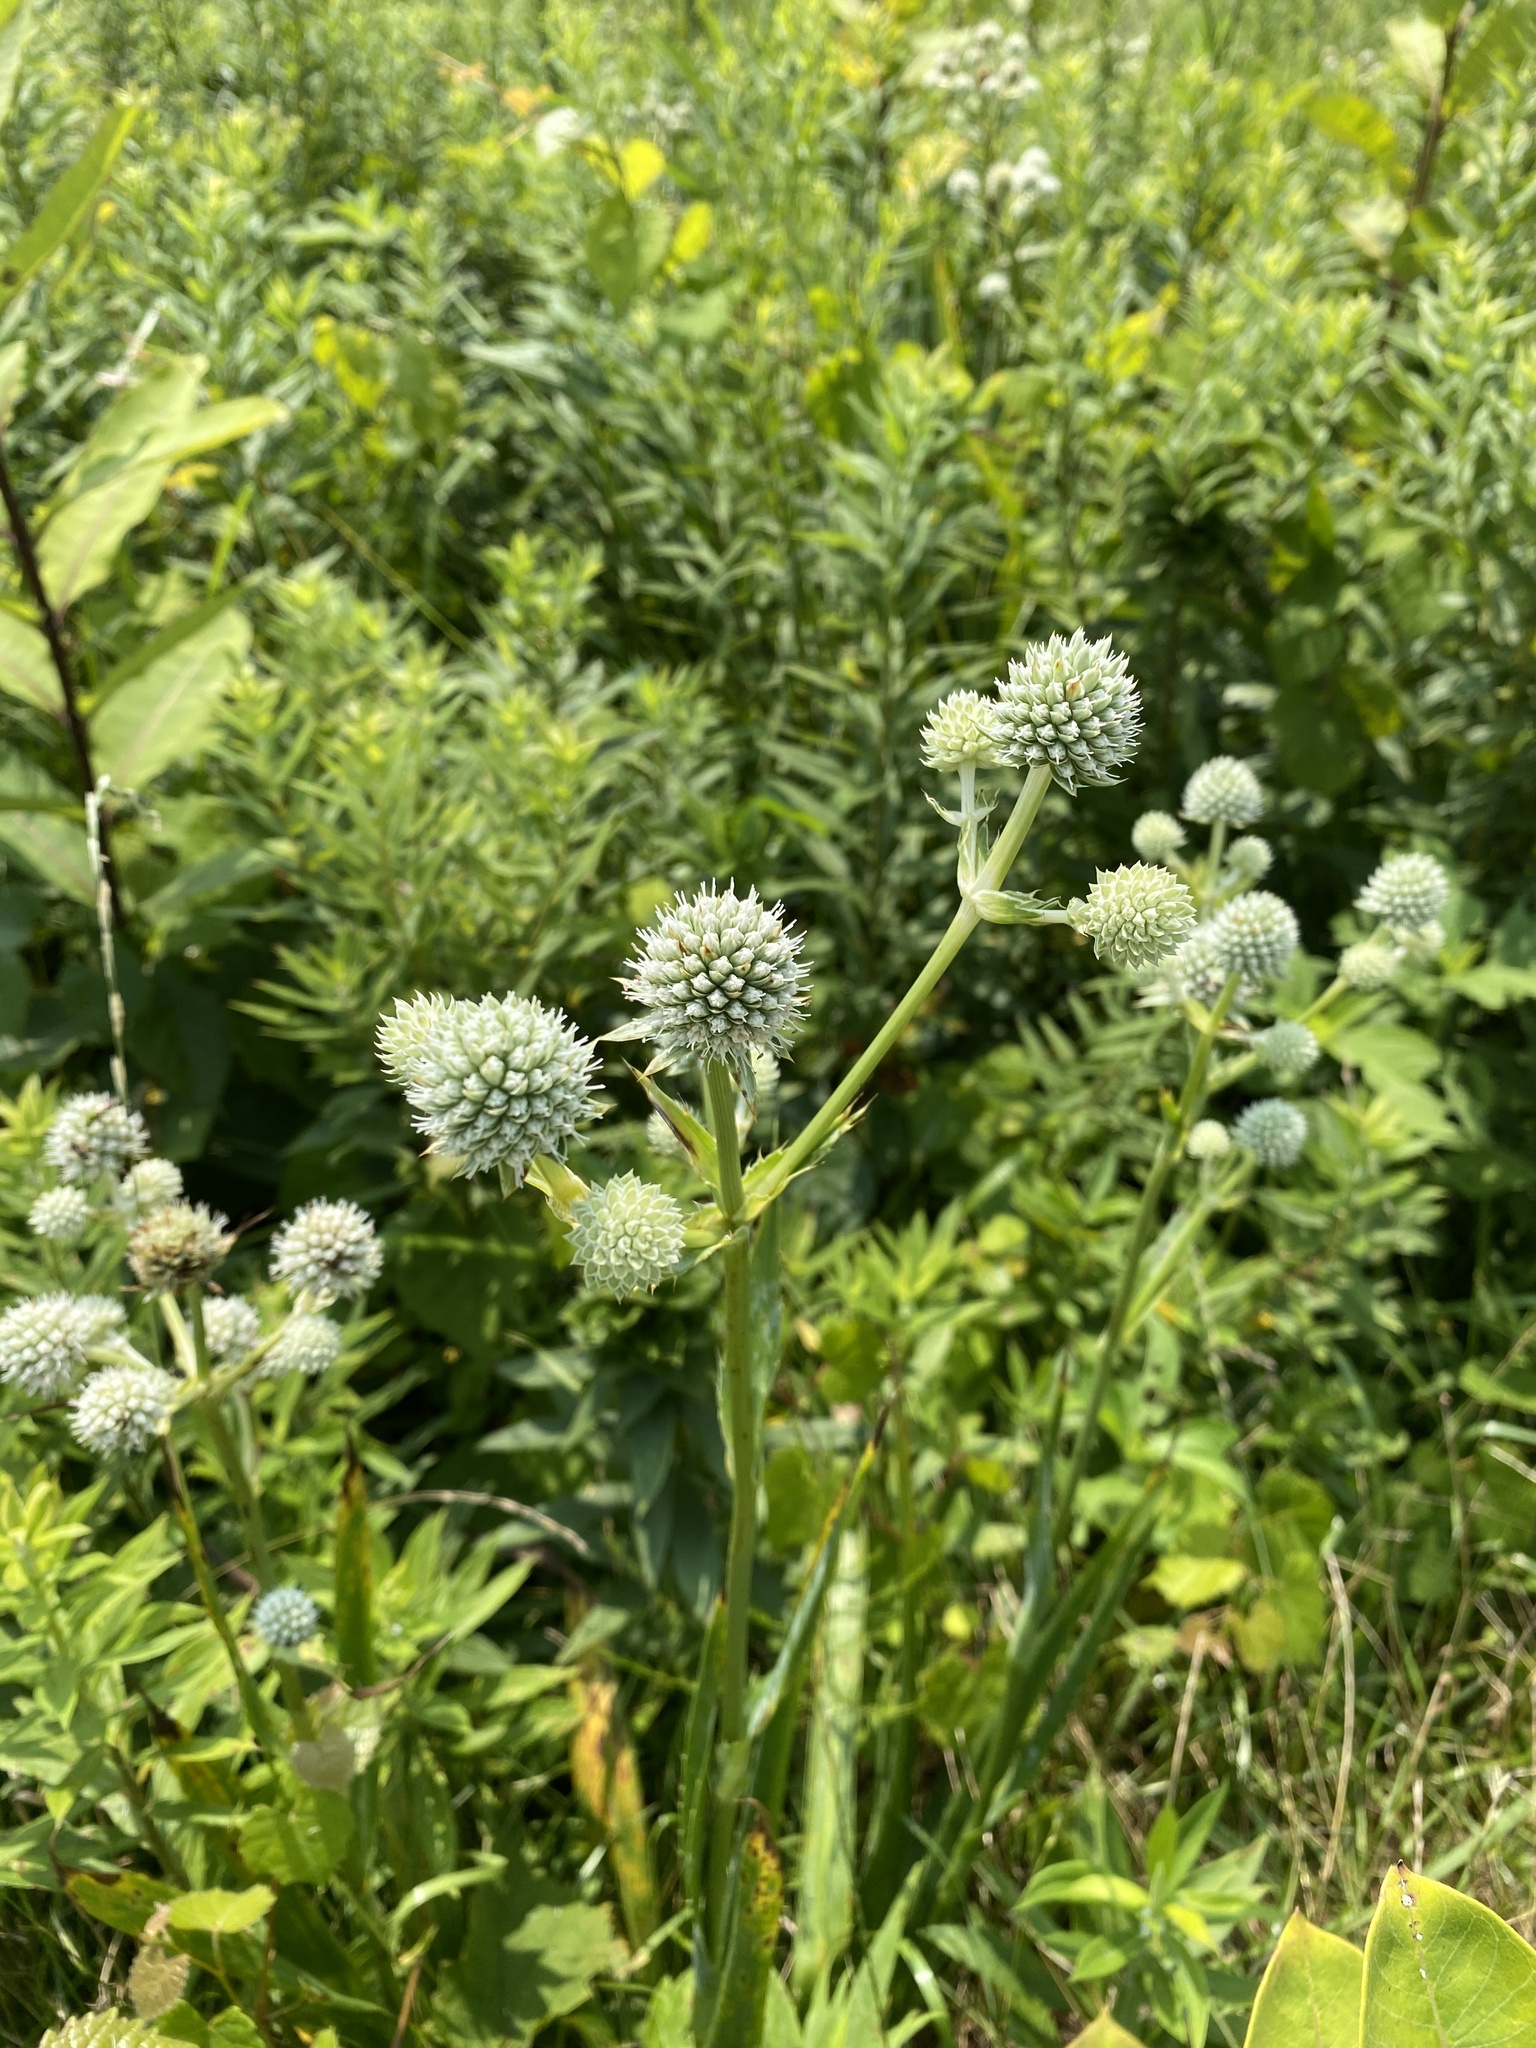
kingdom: Plantae
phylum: Tracheophyta
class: Magnoliopsida
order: Apiales
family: Apiaceae
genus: Eryngium
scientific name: Eryngium yuccifolium
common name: Button eryngo
